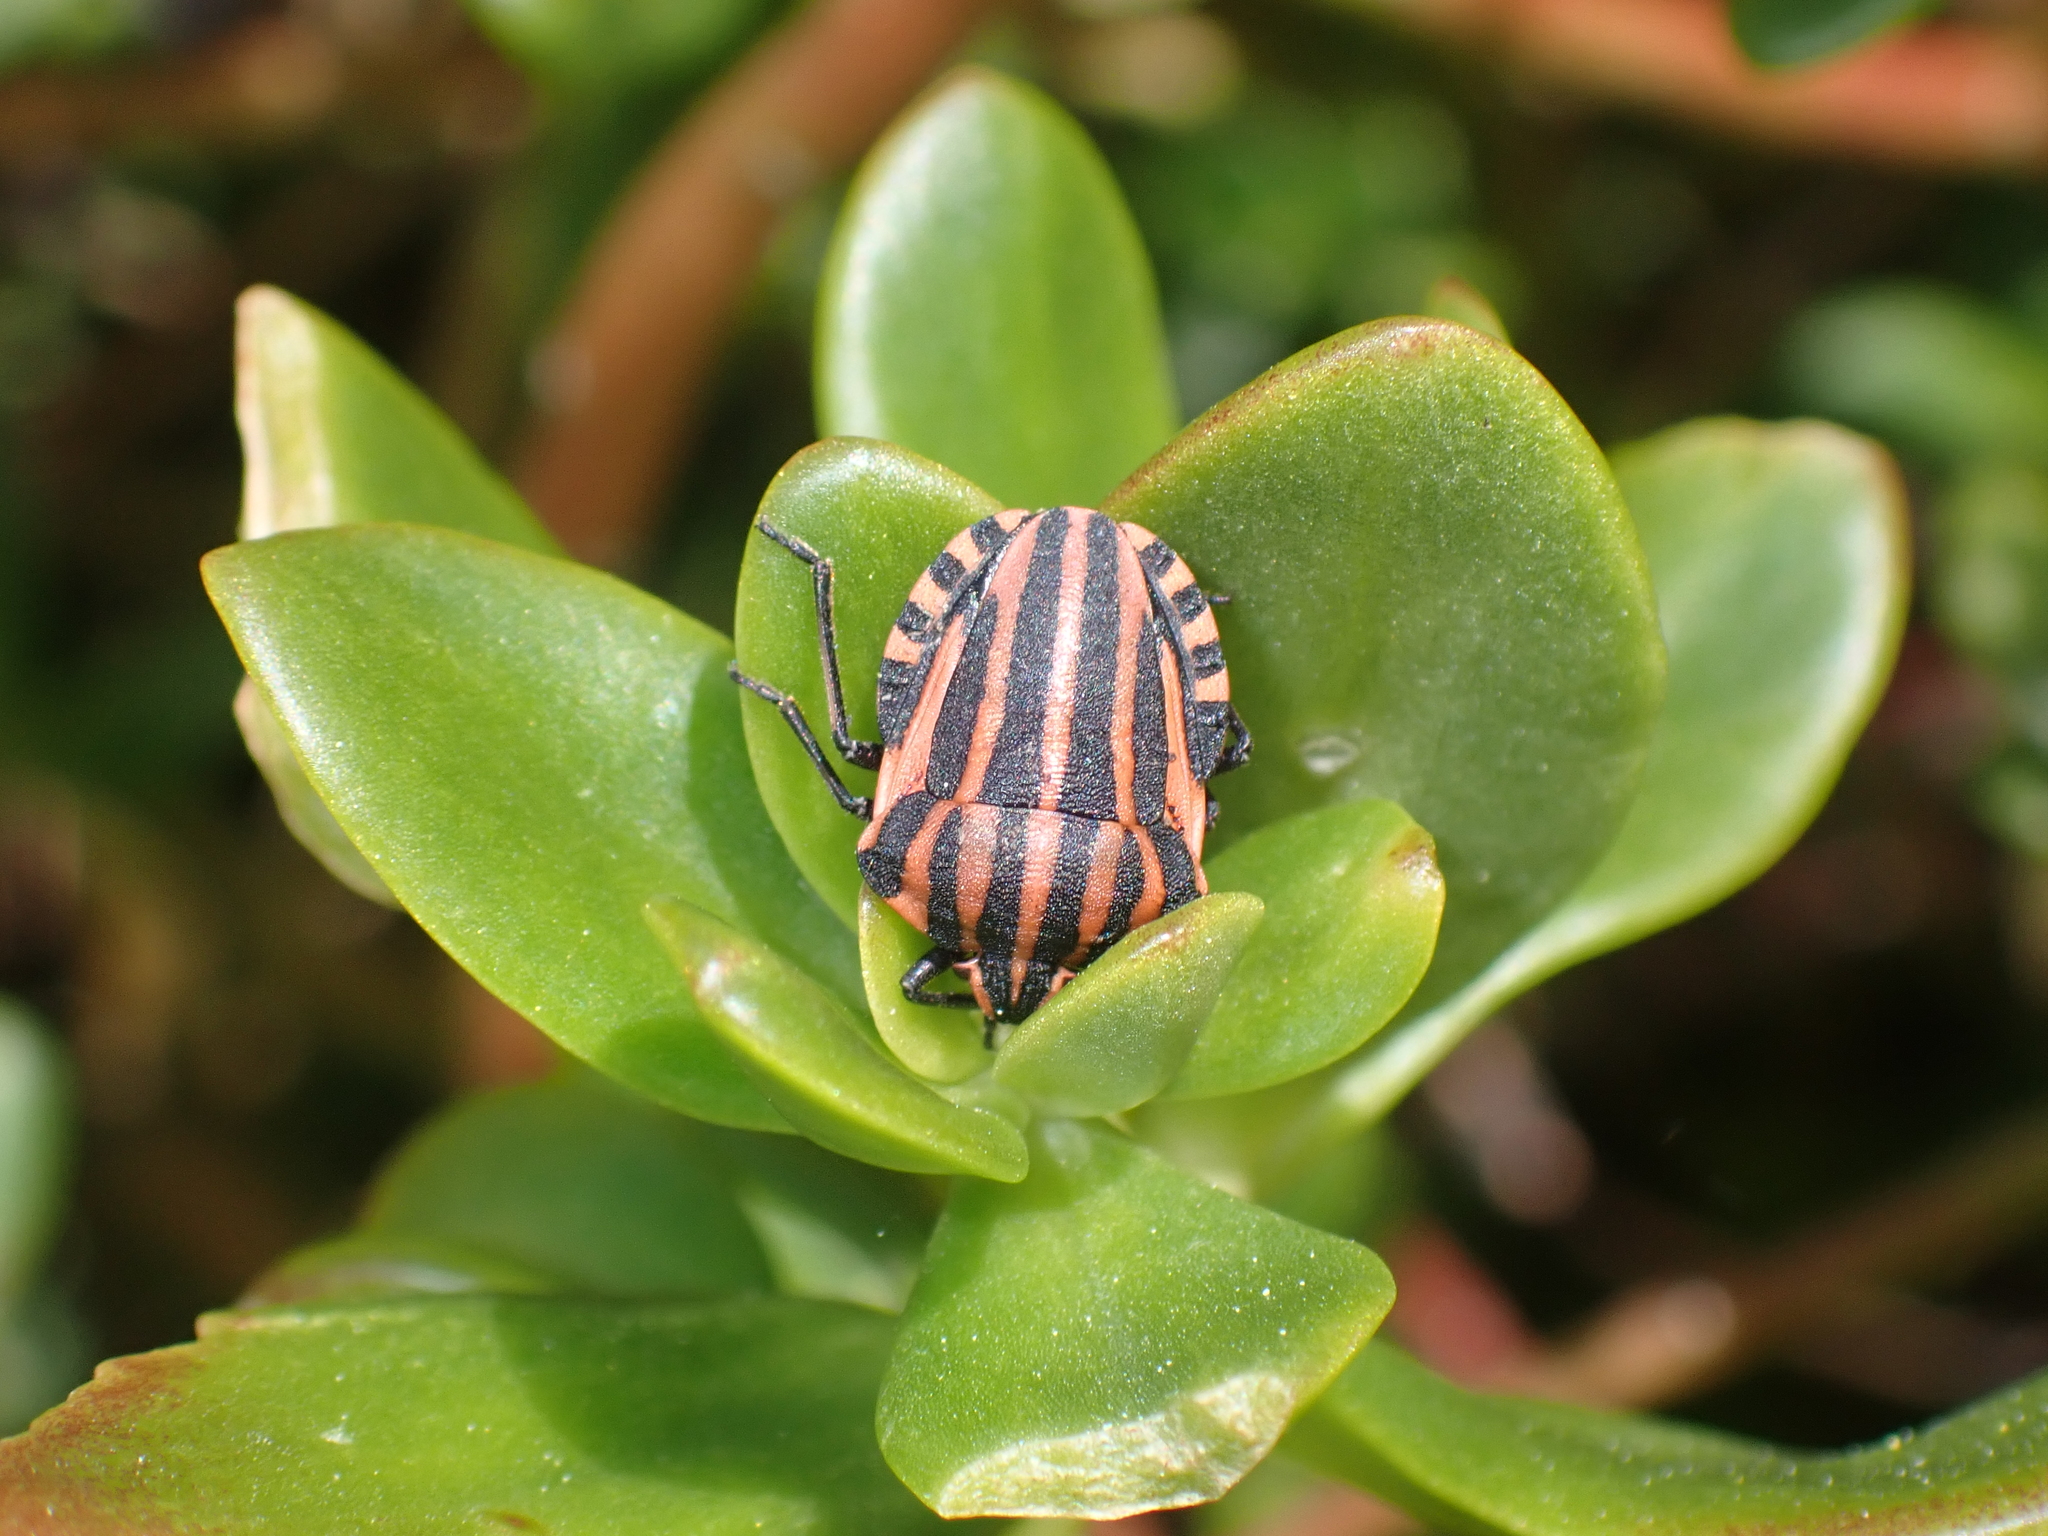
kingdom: Animalia
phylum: Arthropoda
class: Insecta
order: Hemiptera
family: Pentatomidae
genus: Graphosoma
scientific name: Graphosoma italicum
